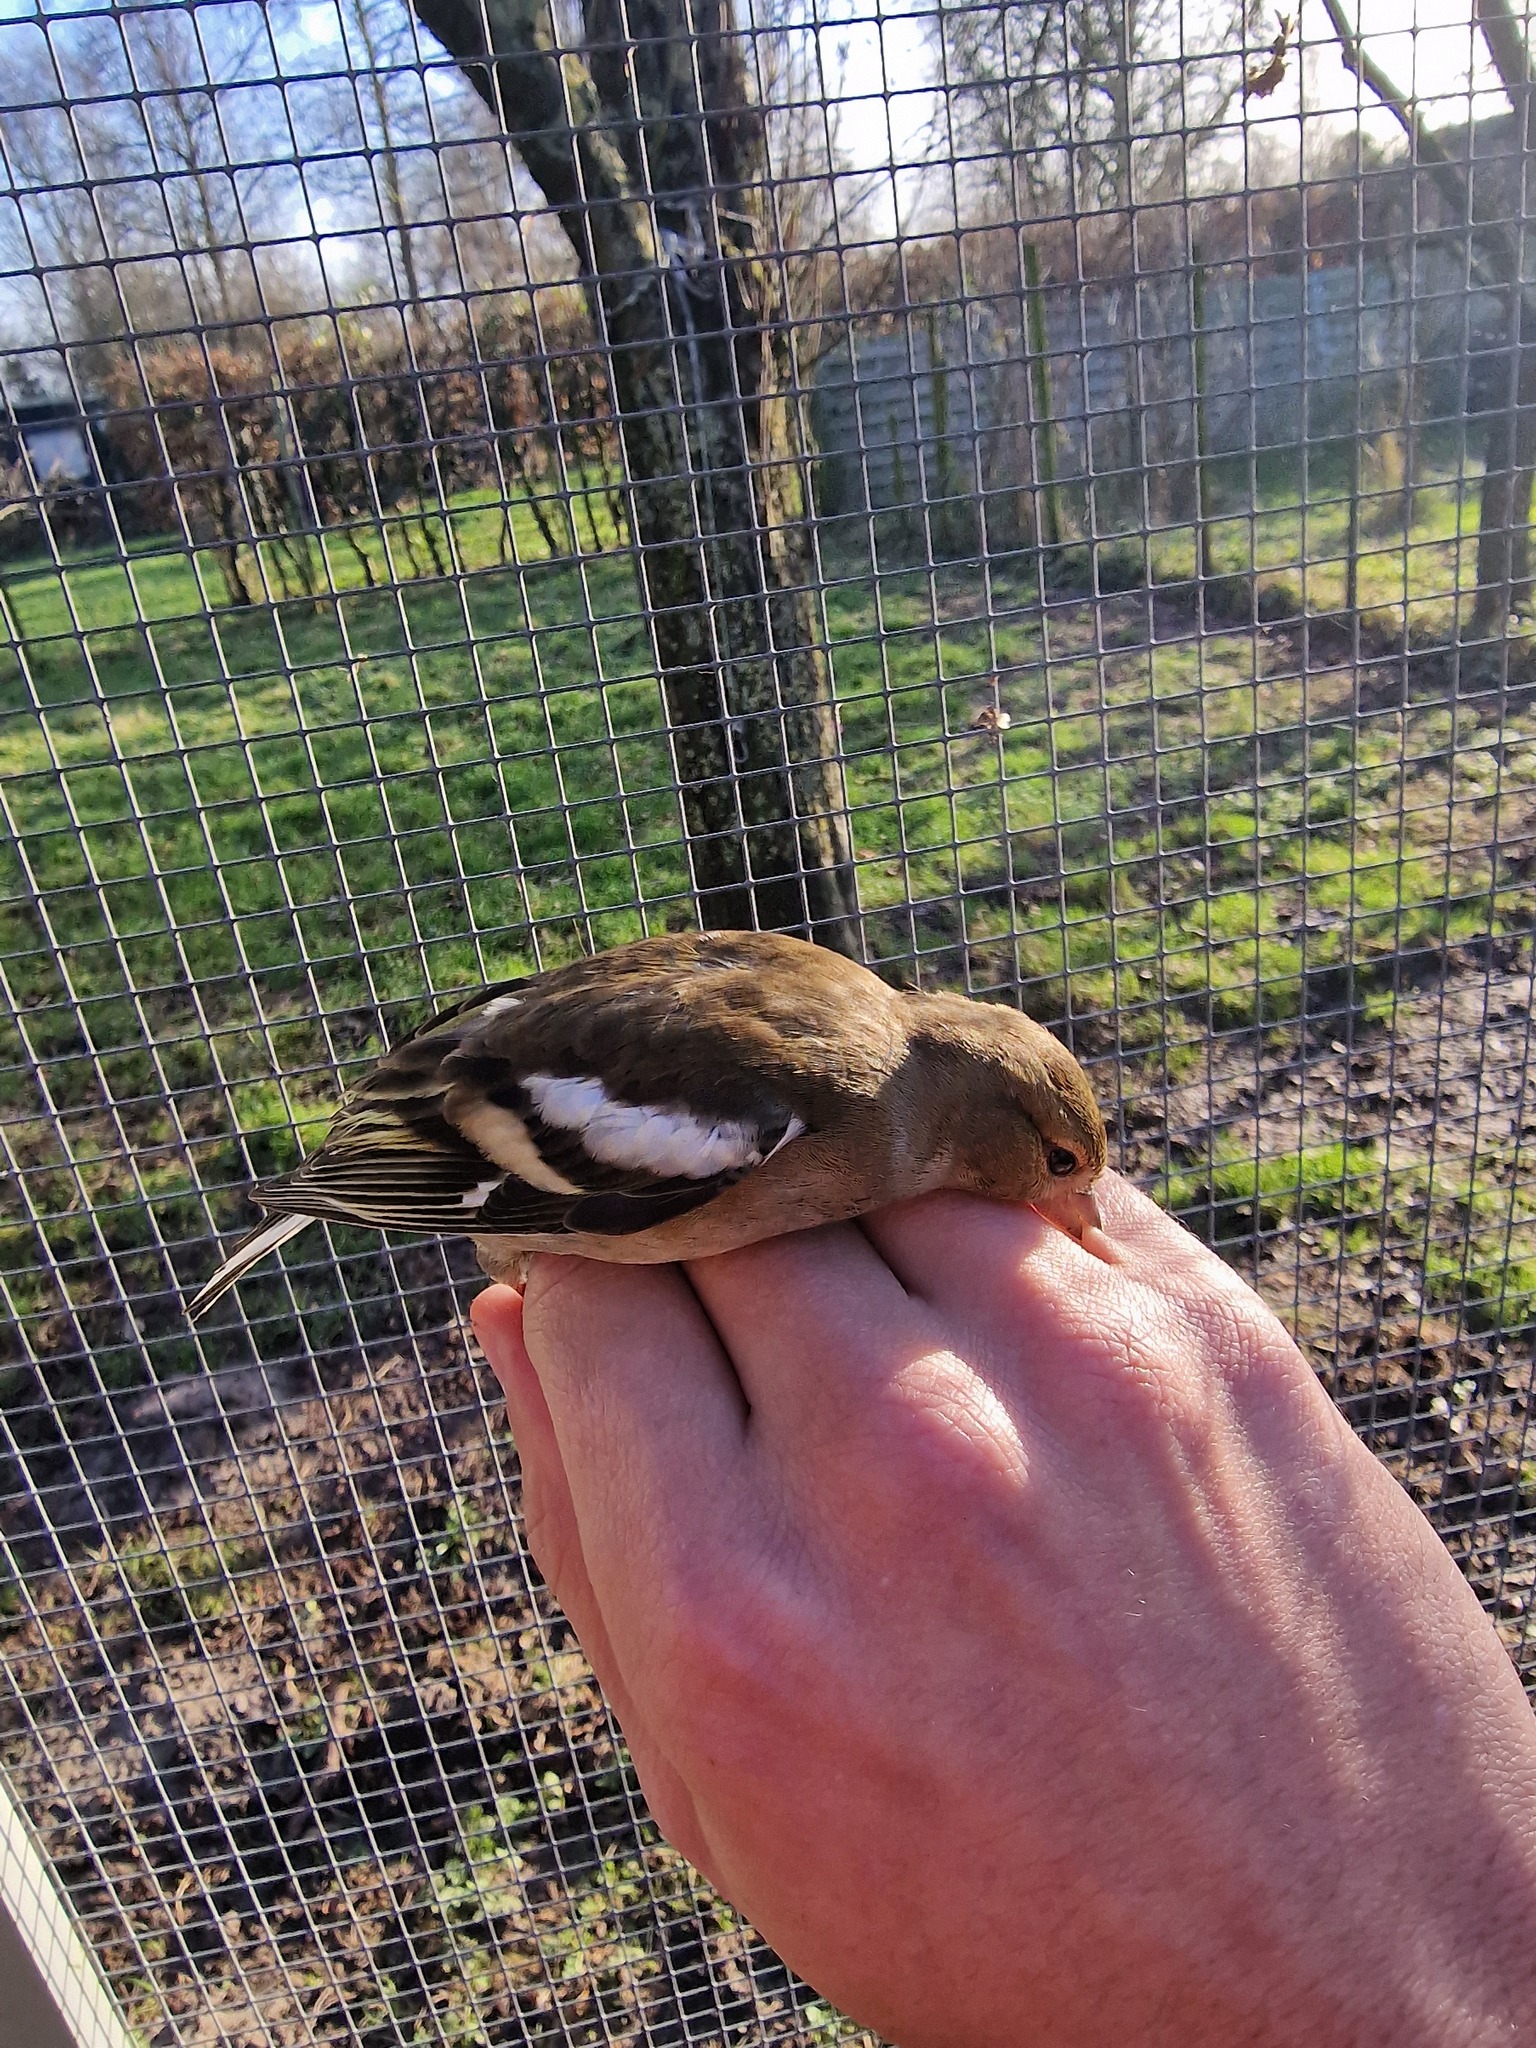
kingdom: Animalia
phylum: Chordata
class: Aves
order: Passeriformes
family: Fringillidae
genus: Fringilla
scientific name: Fringilla coelebs
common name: Common chaffinch
